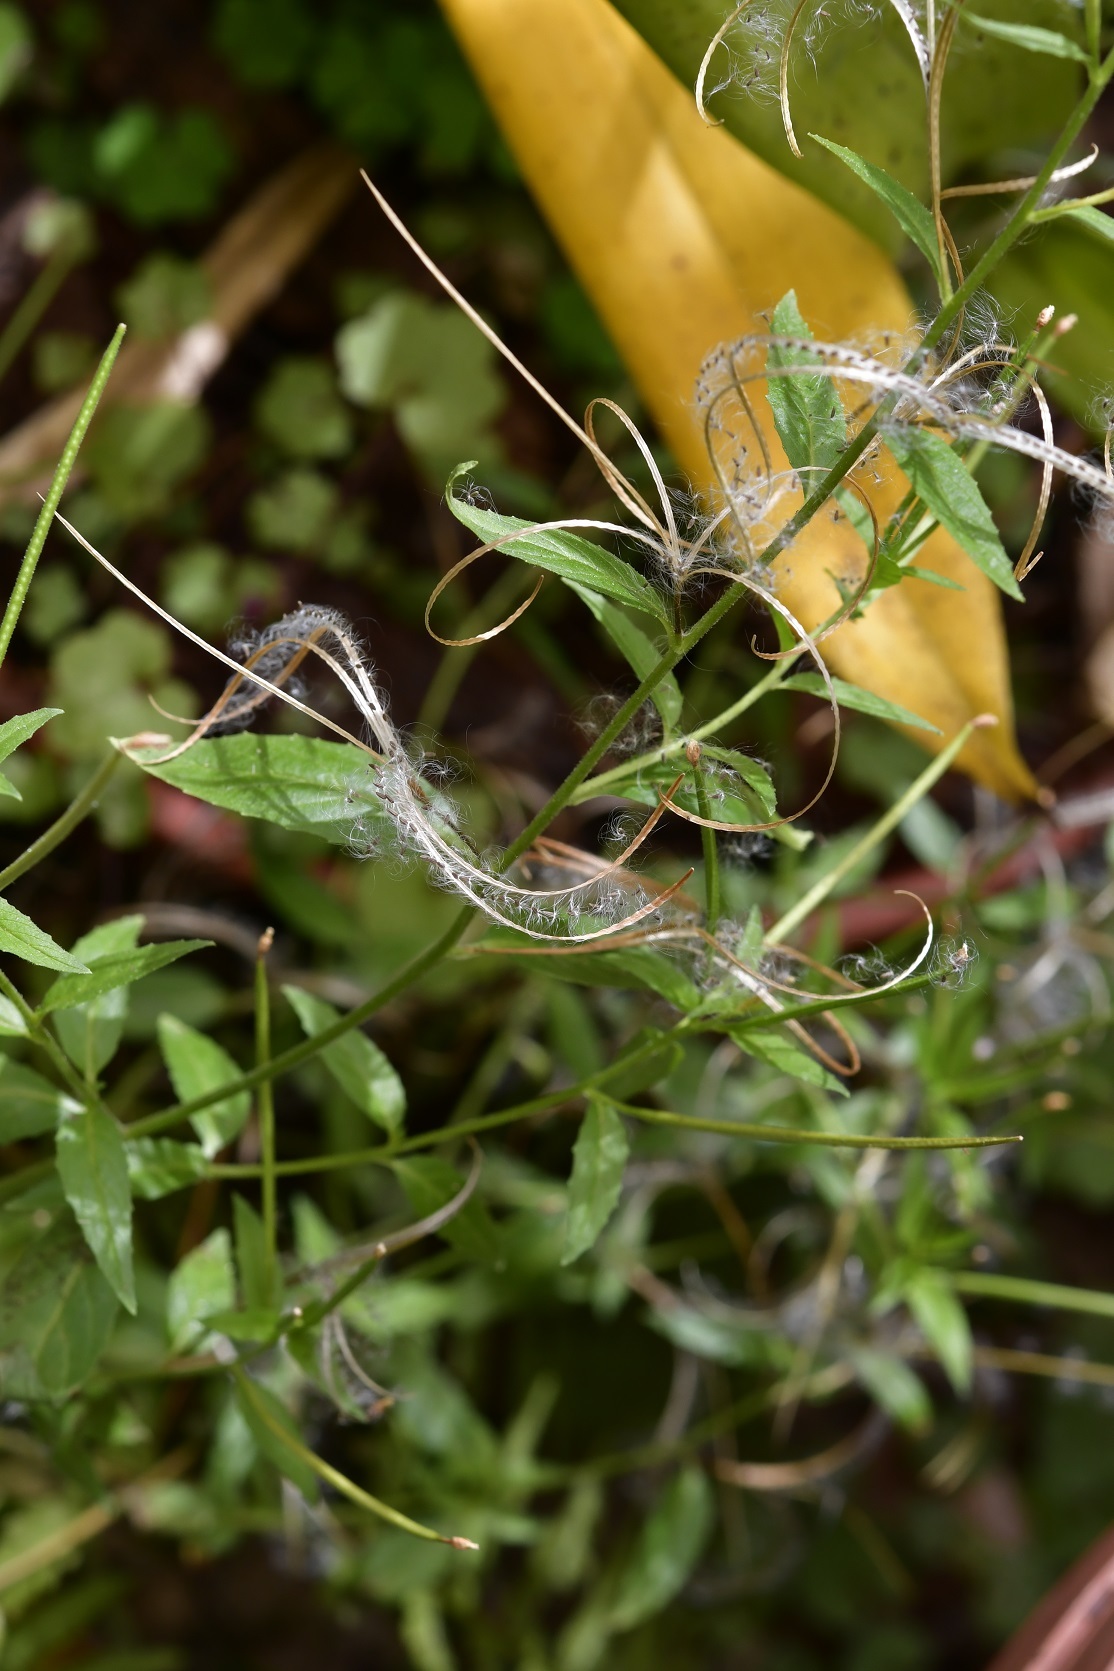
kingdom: Plantae
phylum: Tracheophyta
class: Magnoliopsida
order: Myrtales
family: Onagraceae
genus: Epilobium
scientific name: Epilobium ciliatum
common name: American willowherb
